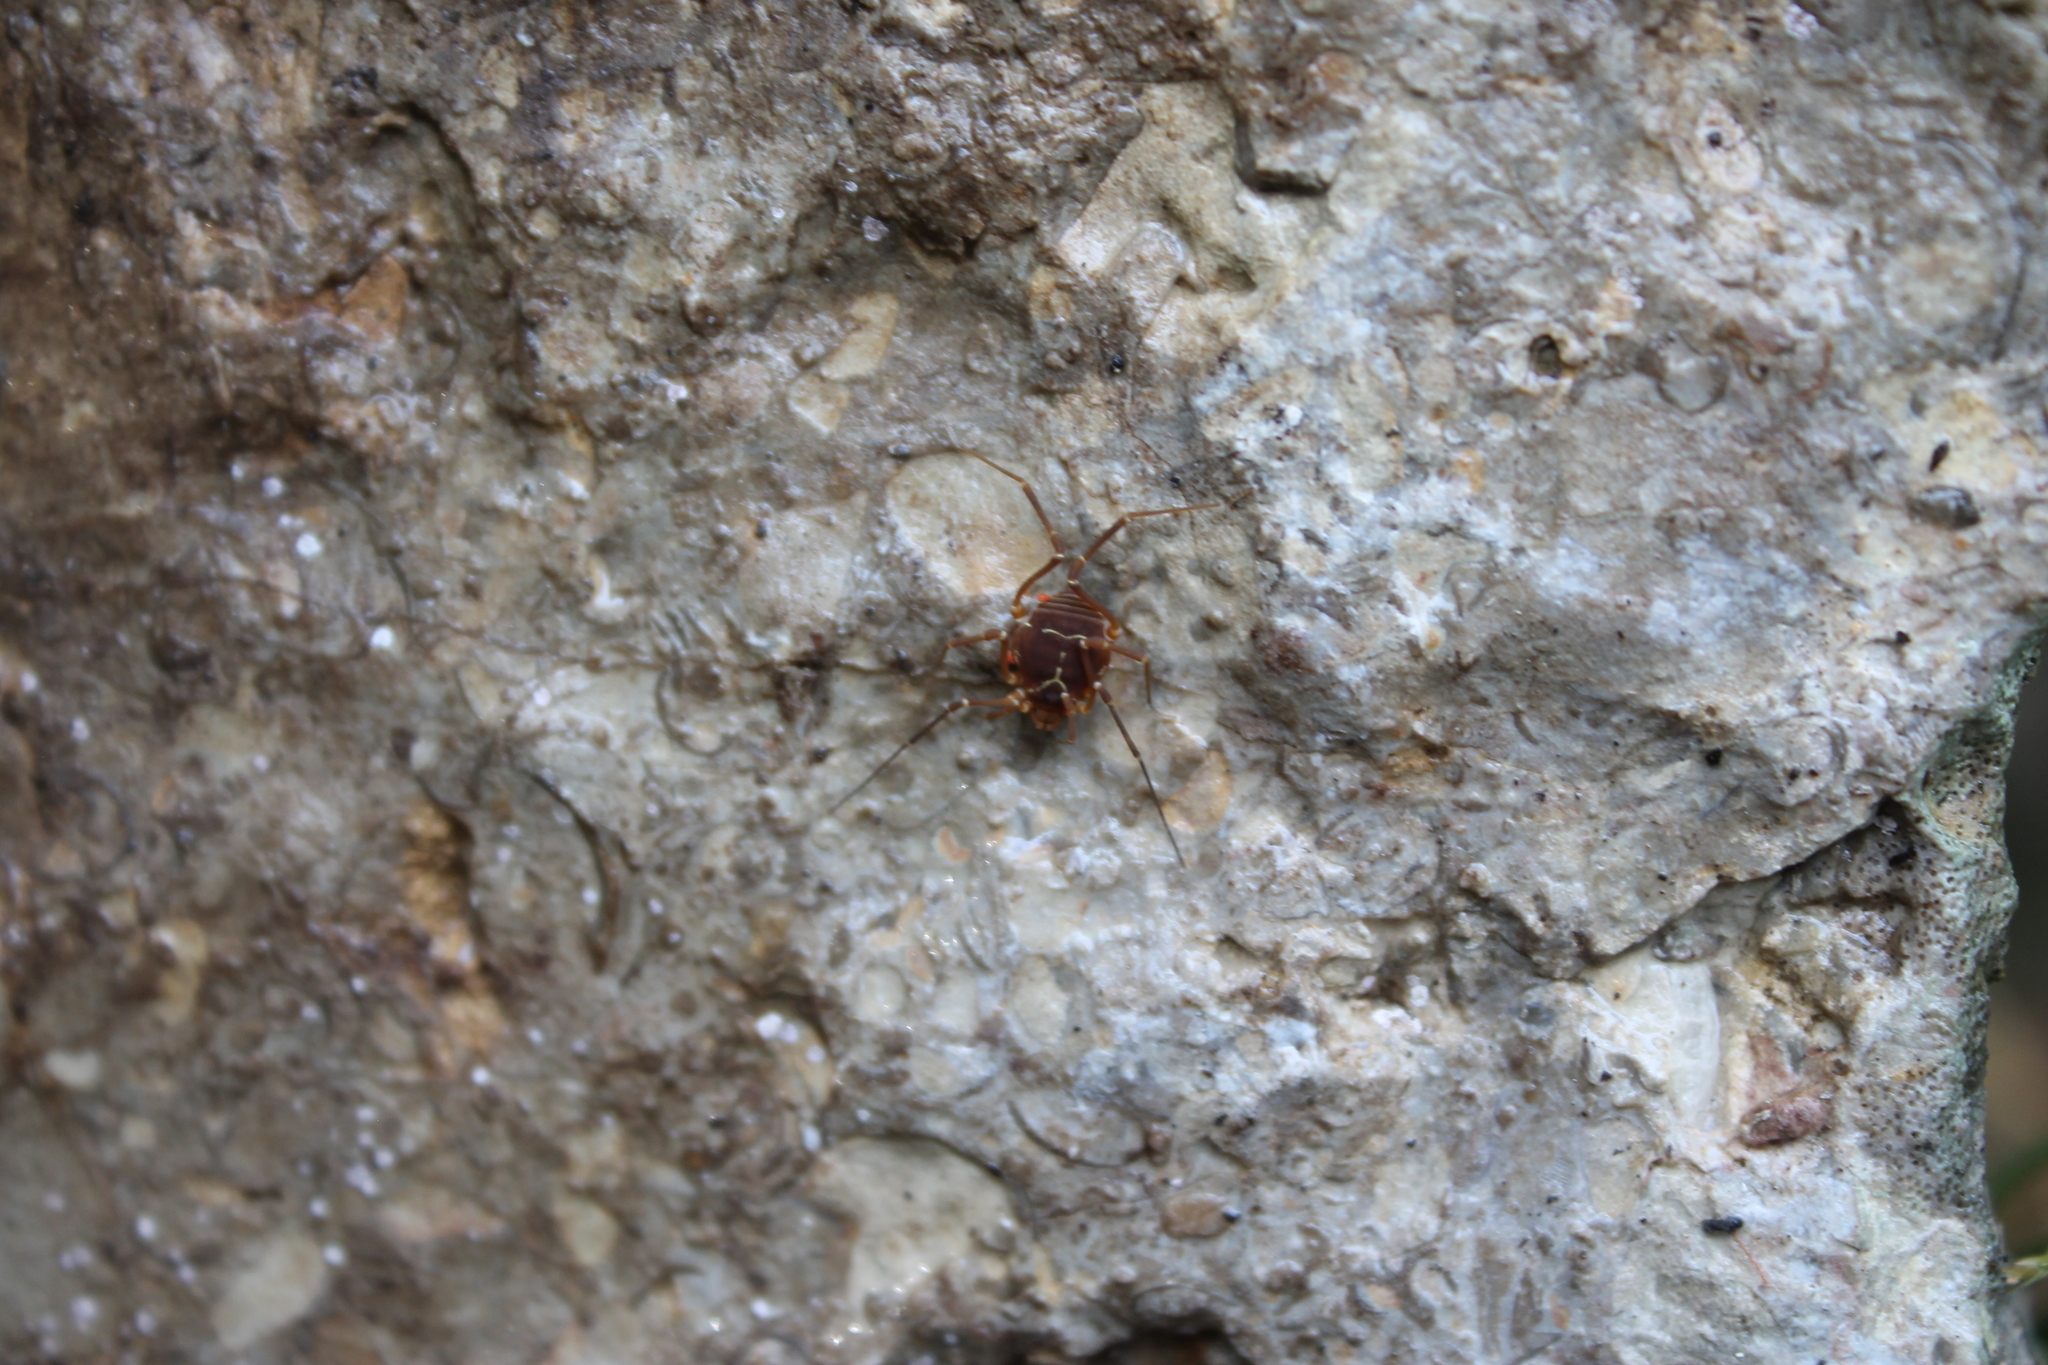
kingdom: Animalia
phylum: Arthropoda
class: Arachnida
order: Opiliones
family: Cosmetidae
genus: Libitioides
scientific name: Libitioides sayi
